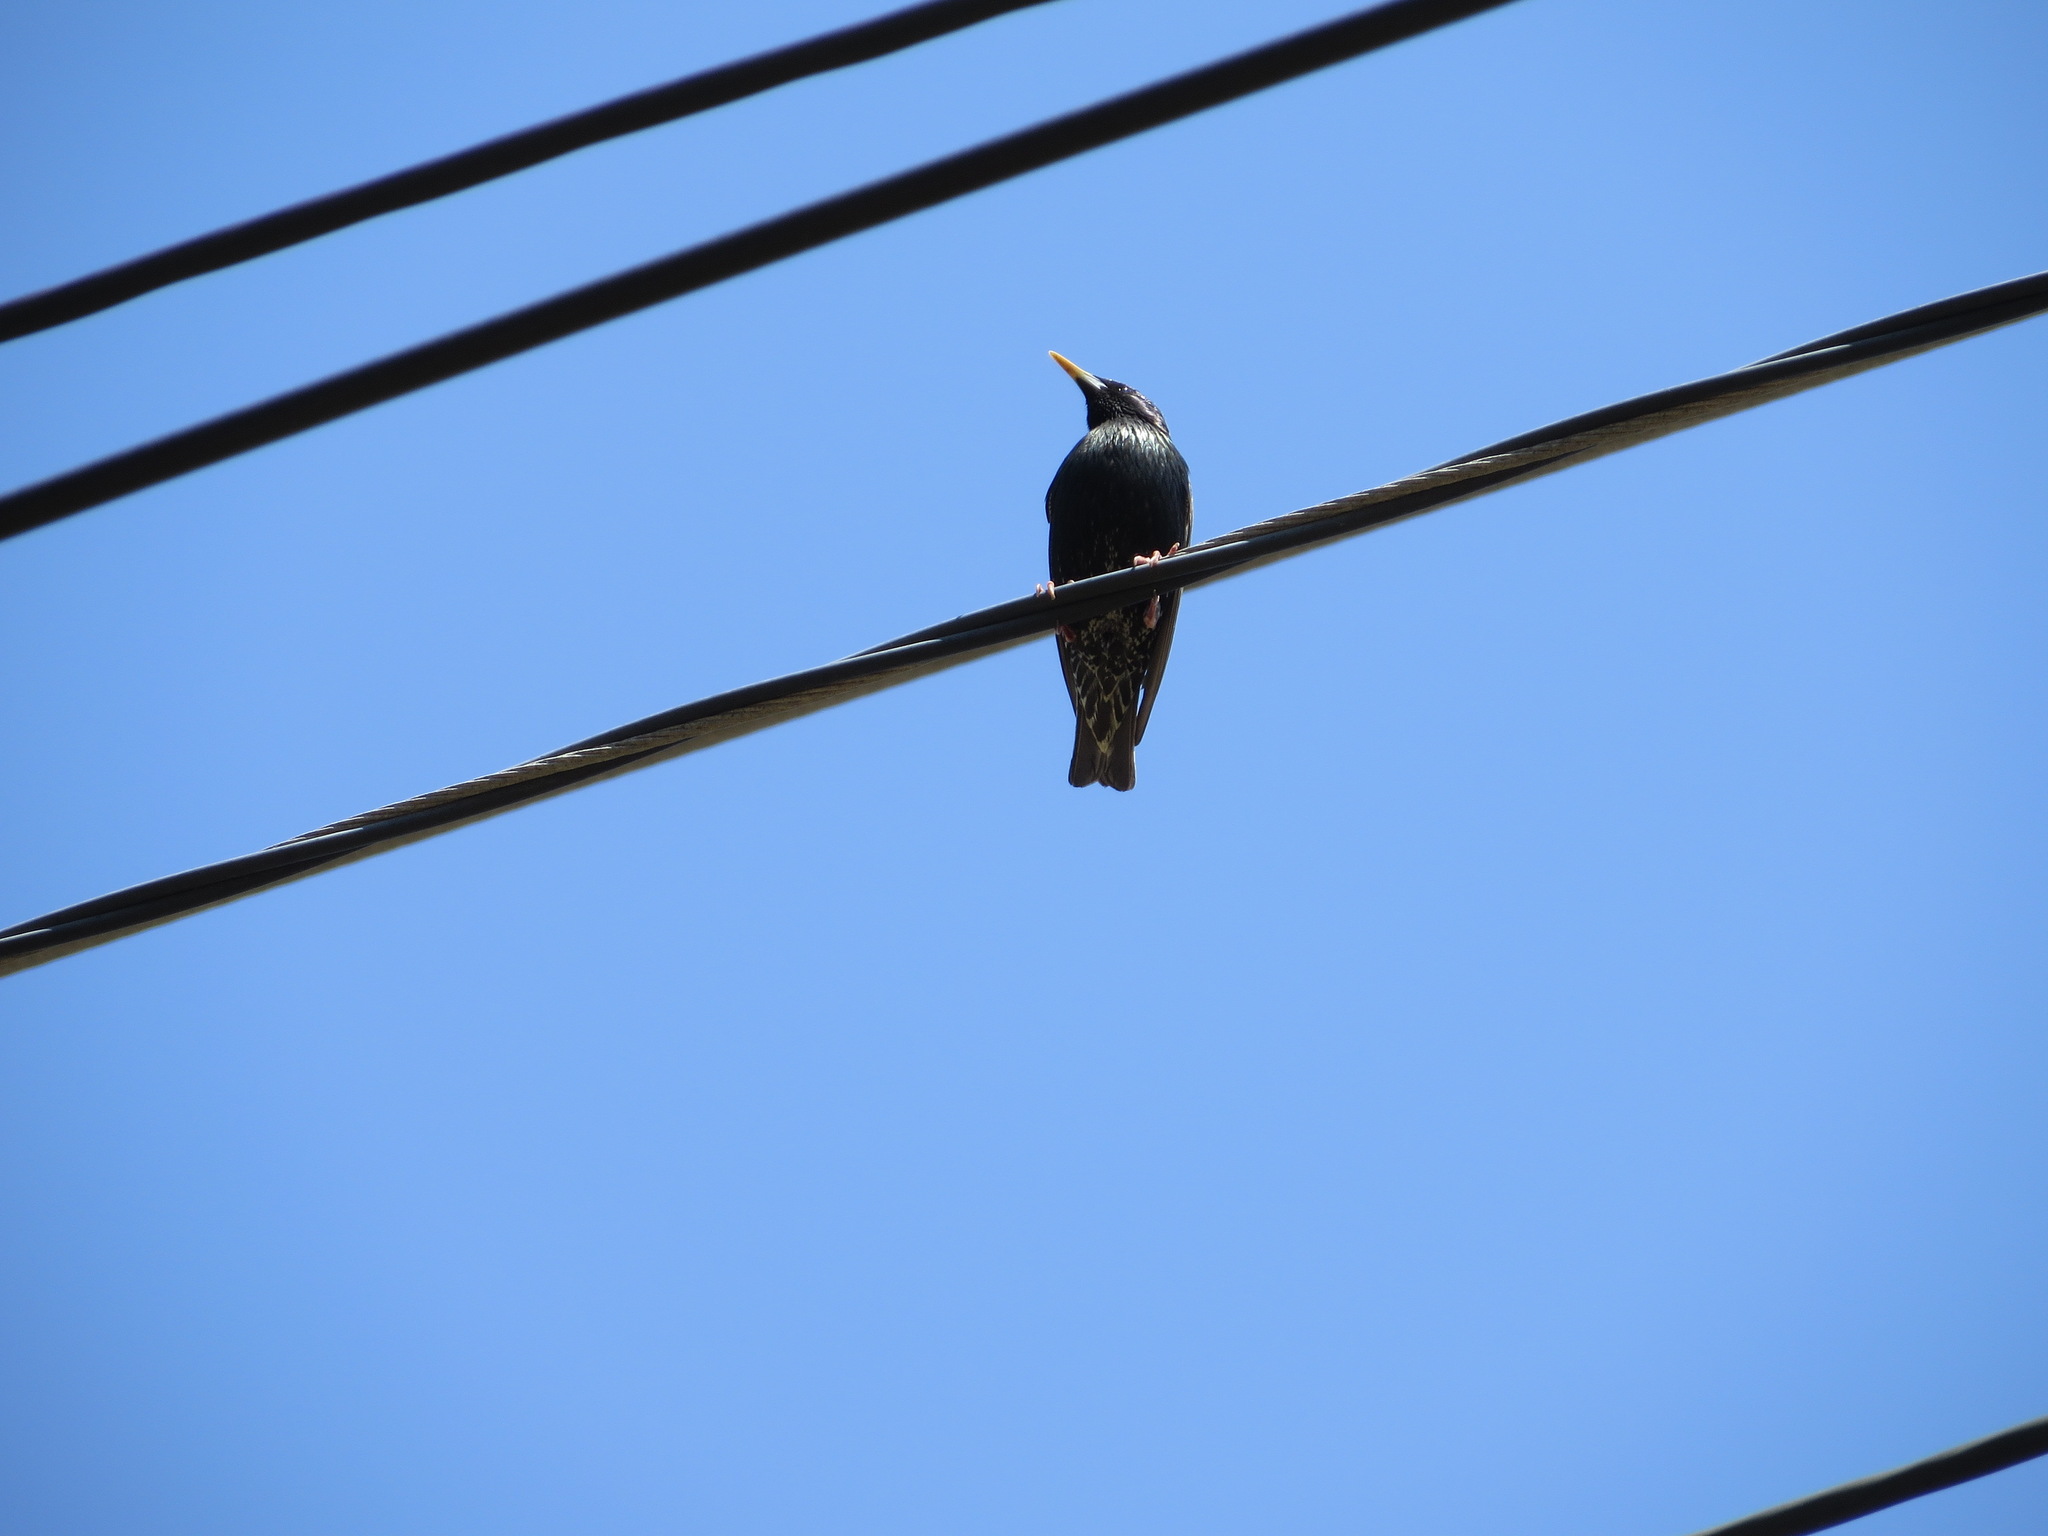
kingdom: Animalia
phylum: Chordata
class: Aves
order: Passeriformes
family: Sturnidae
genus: Sturnus
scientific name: Sturnus vulgaris
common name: Common starling
